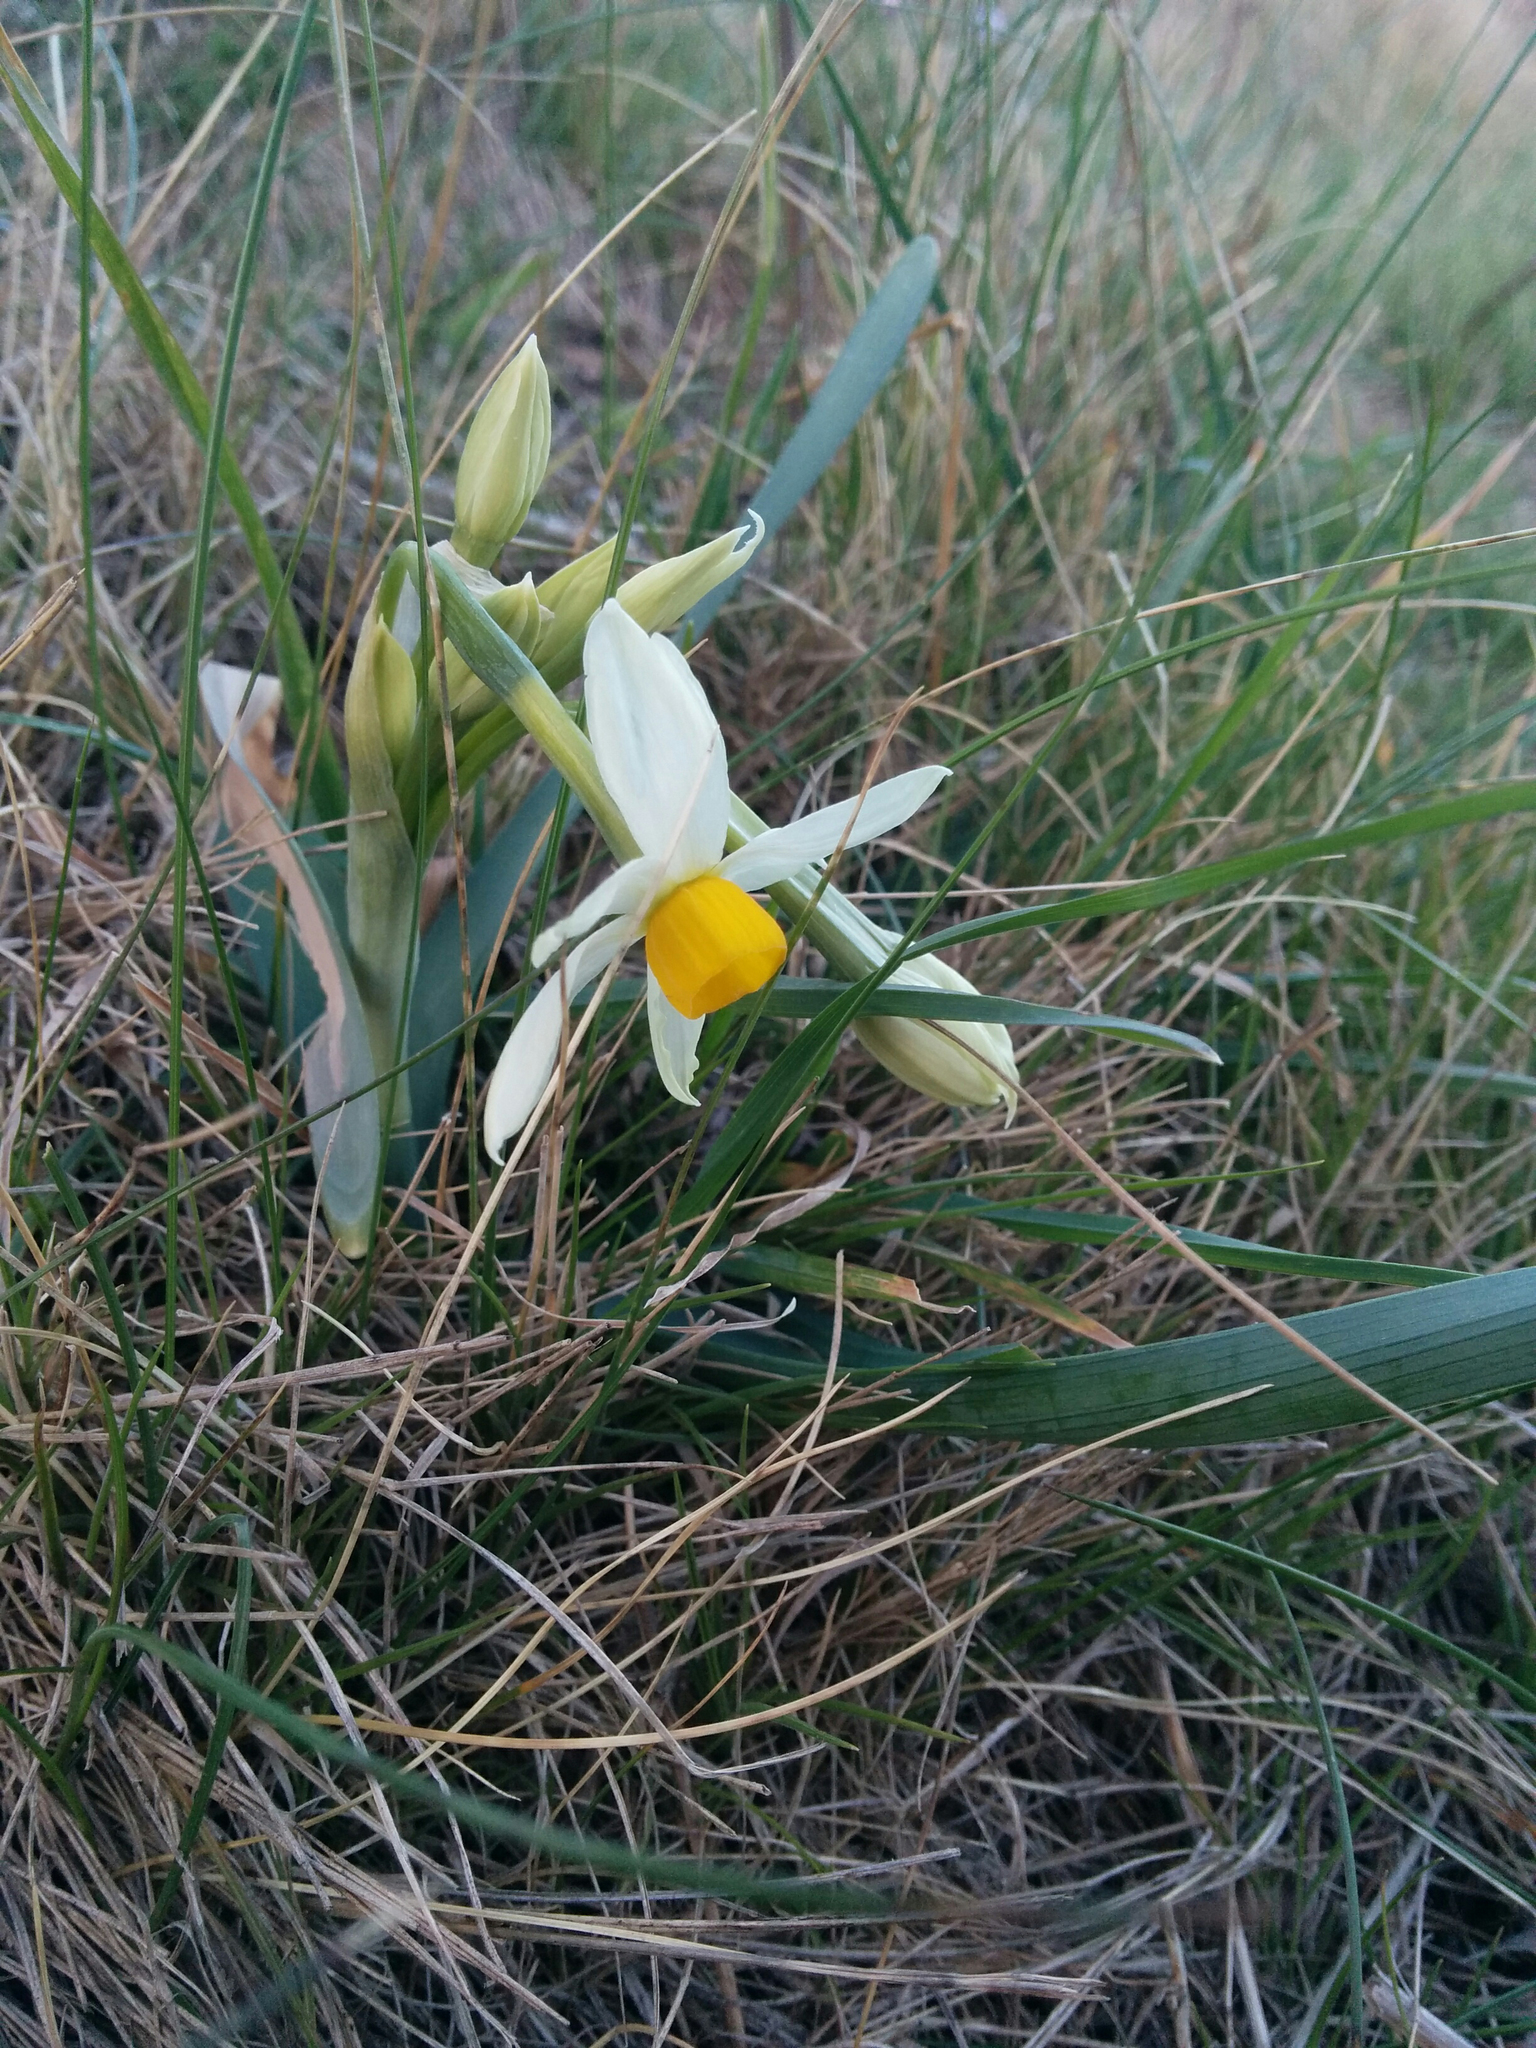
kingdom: Plantae
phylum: Tracheophyta
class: Liliopsida
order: Asparagales
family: Amaryllidaceae
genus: Narcissus
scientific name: Narcissus tazetta
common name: Bunch-flowered daffodil
